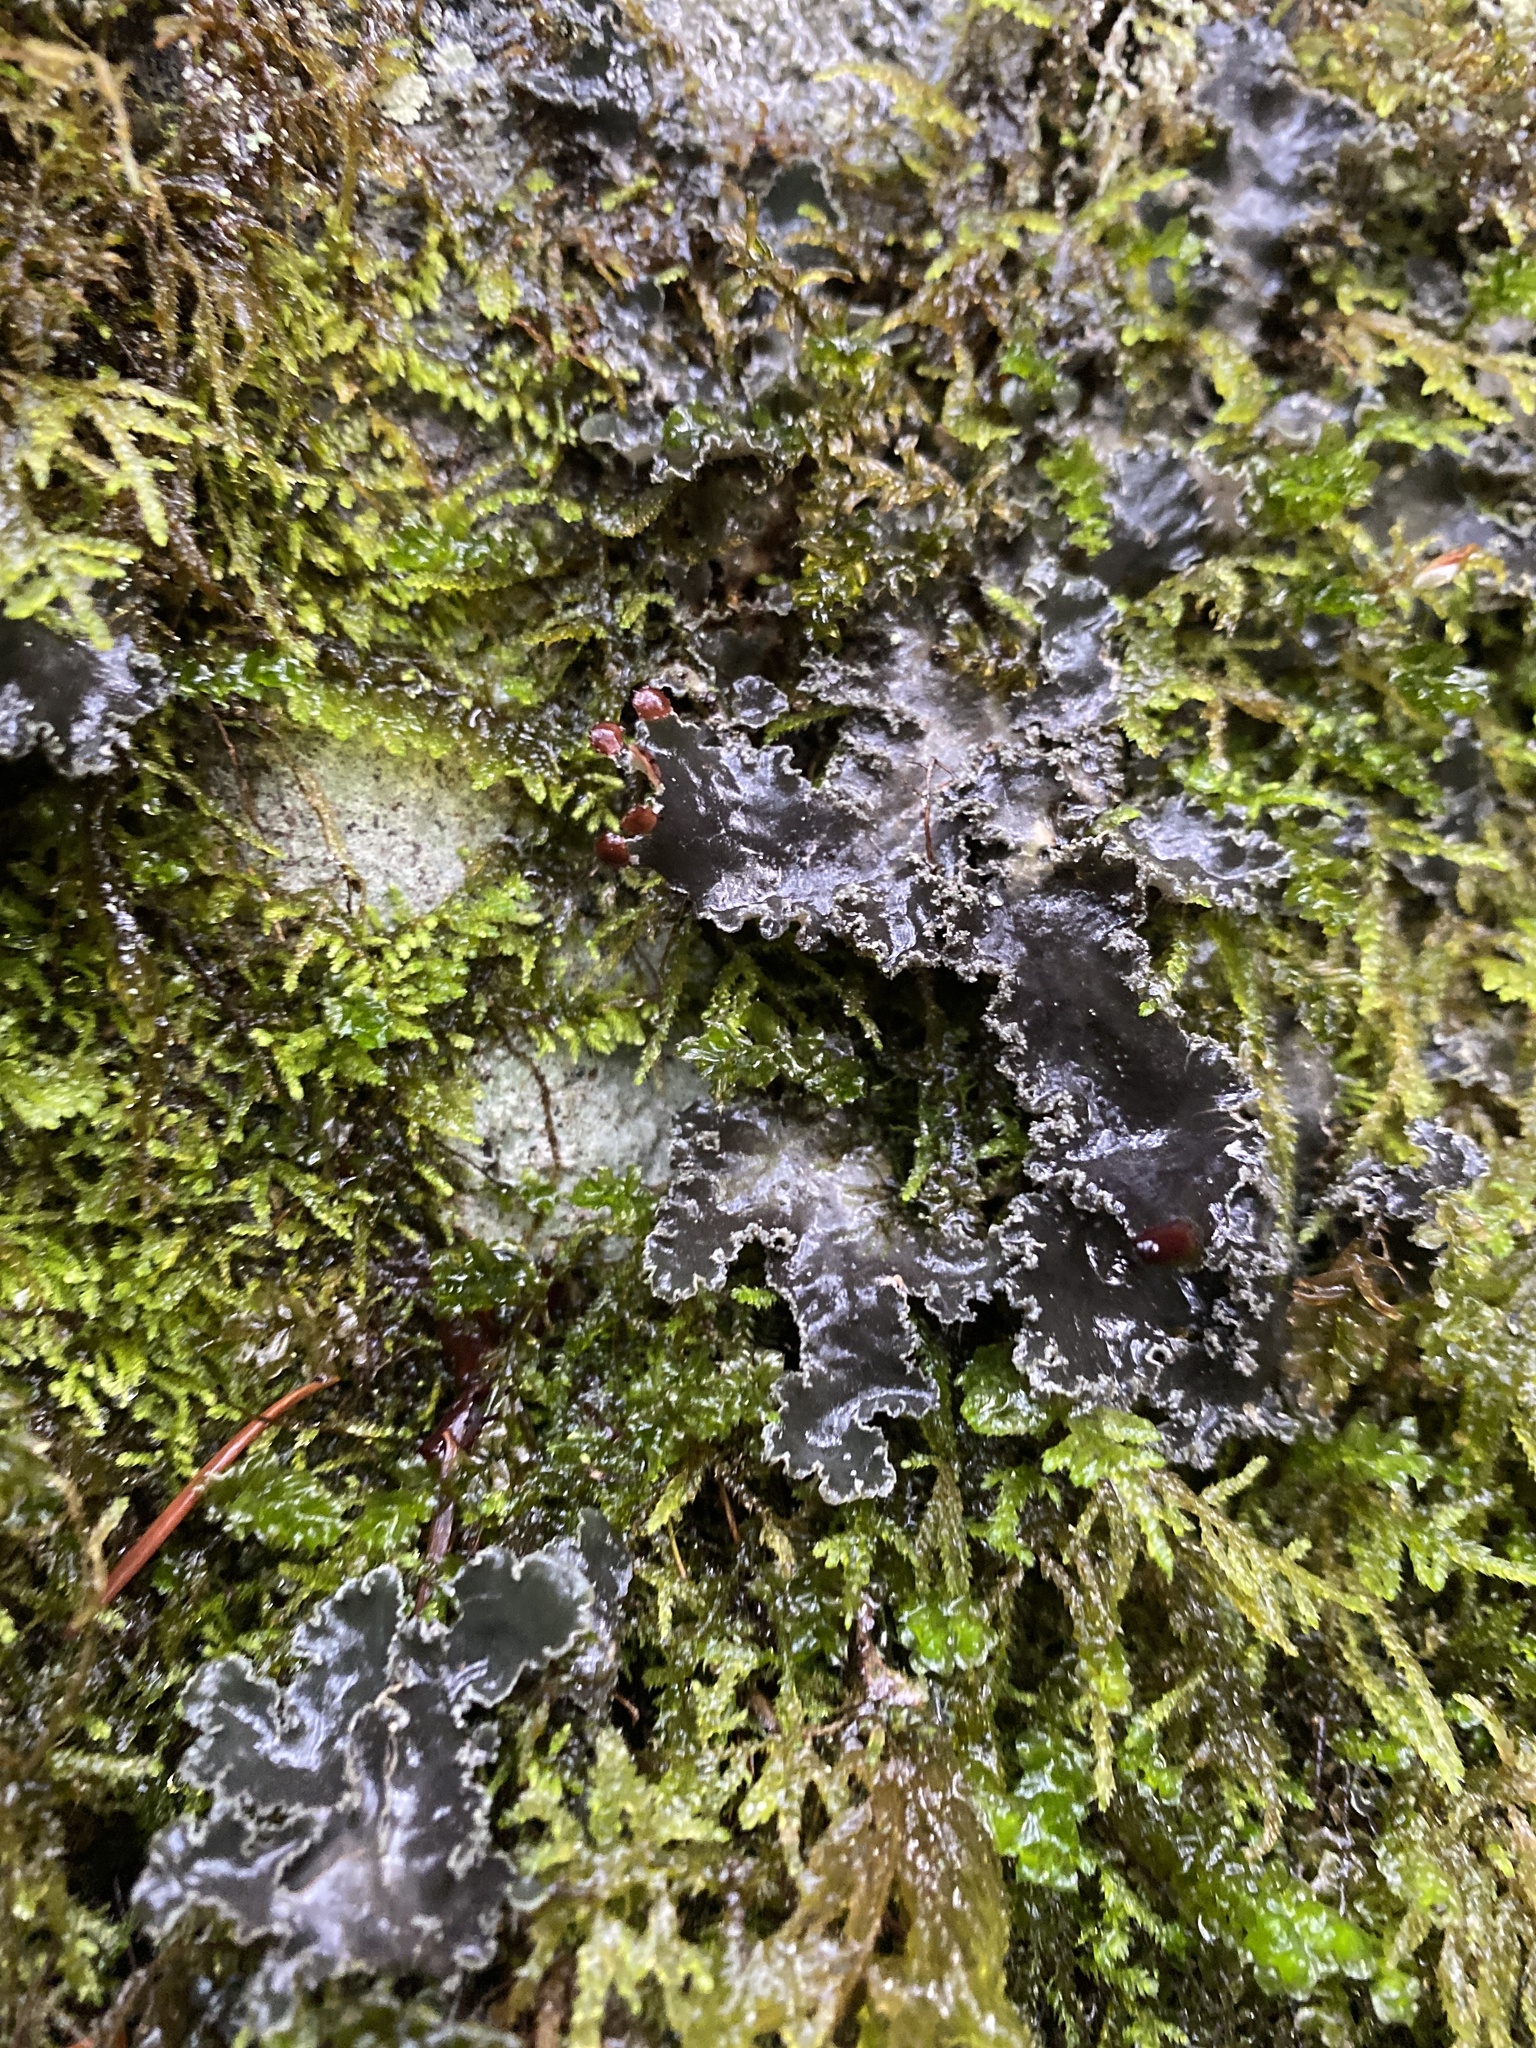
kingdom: Fungi
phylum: Ascomycota
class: Lecanoromycetes
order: Peltigerales
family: Peltigeraceae
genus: Peltigera
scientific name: Peltigera collina
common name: Gritty tree pelt lichen
